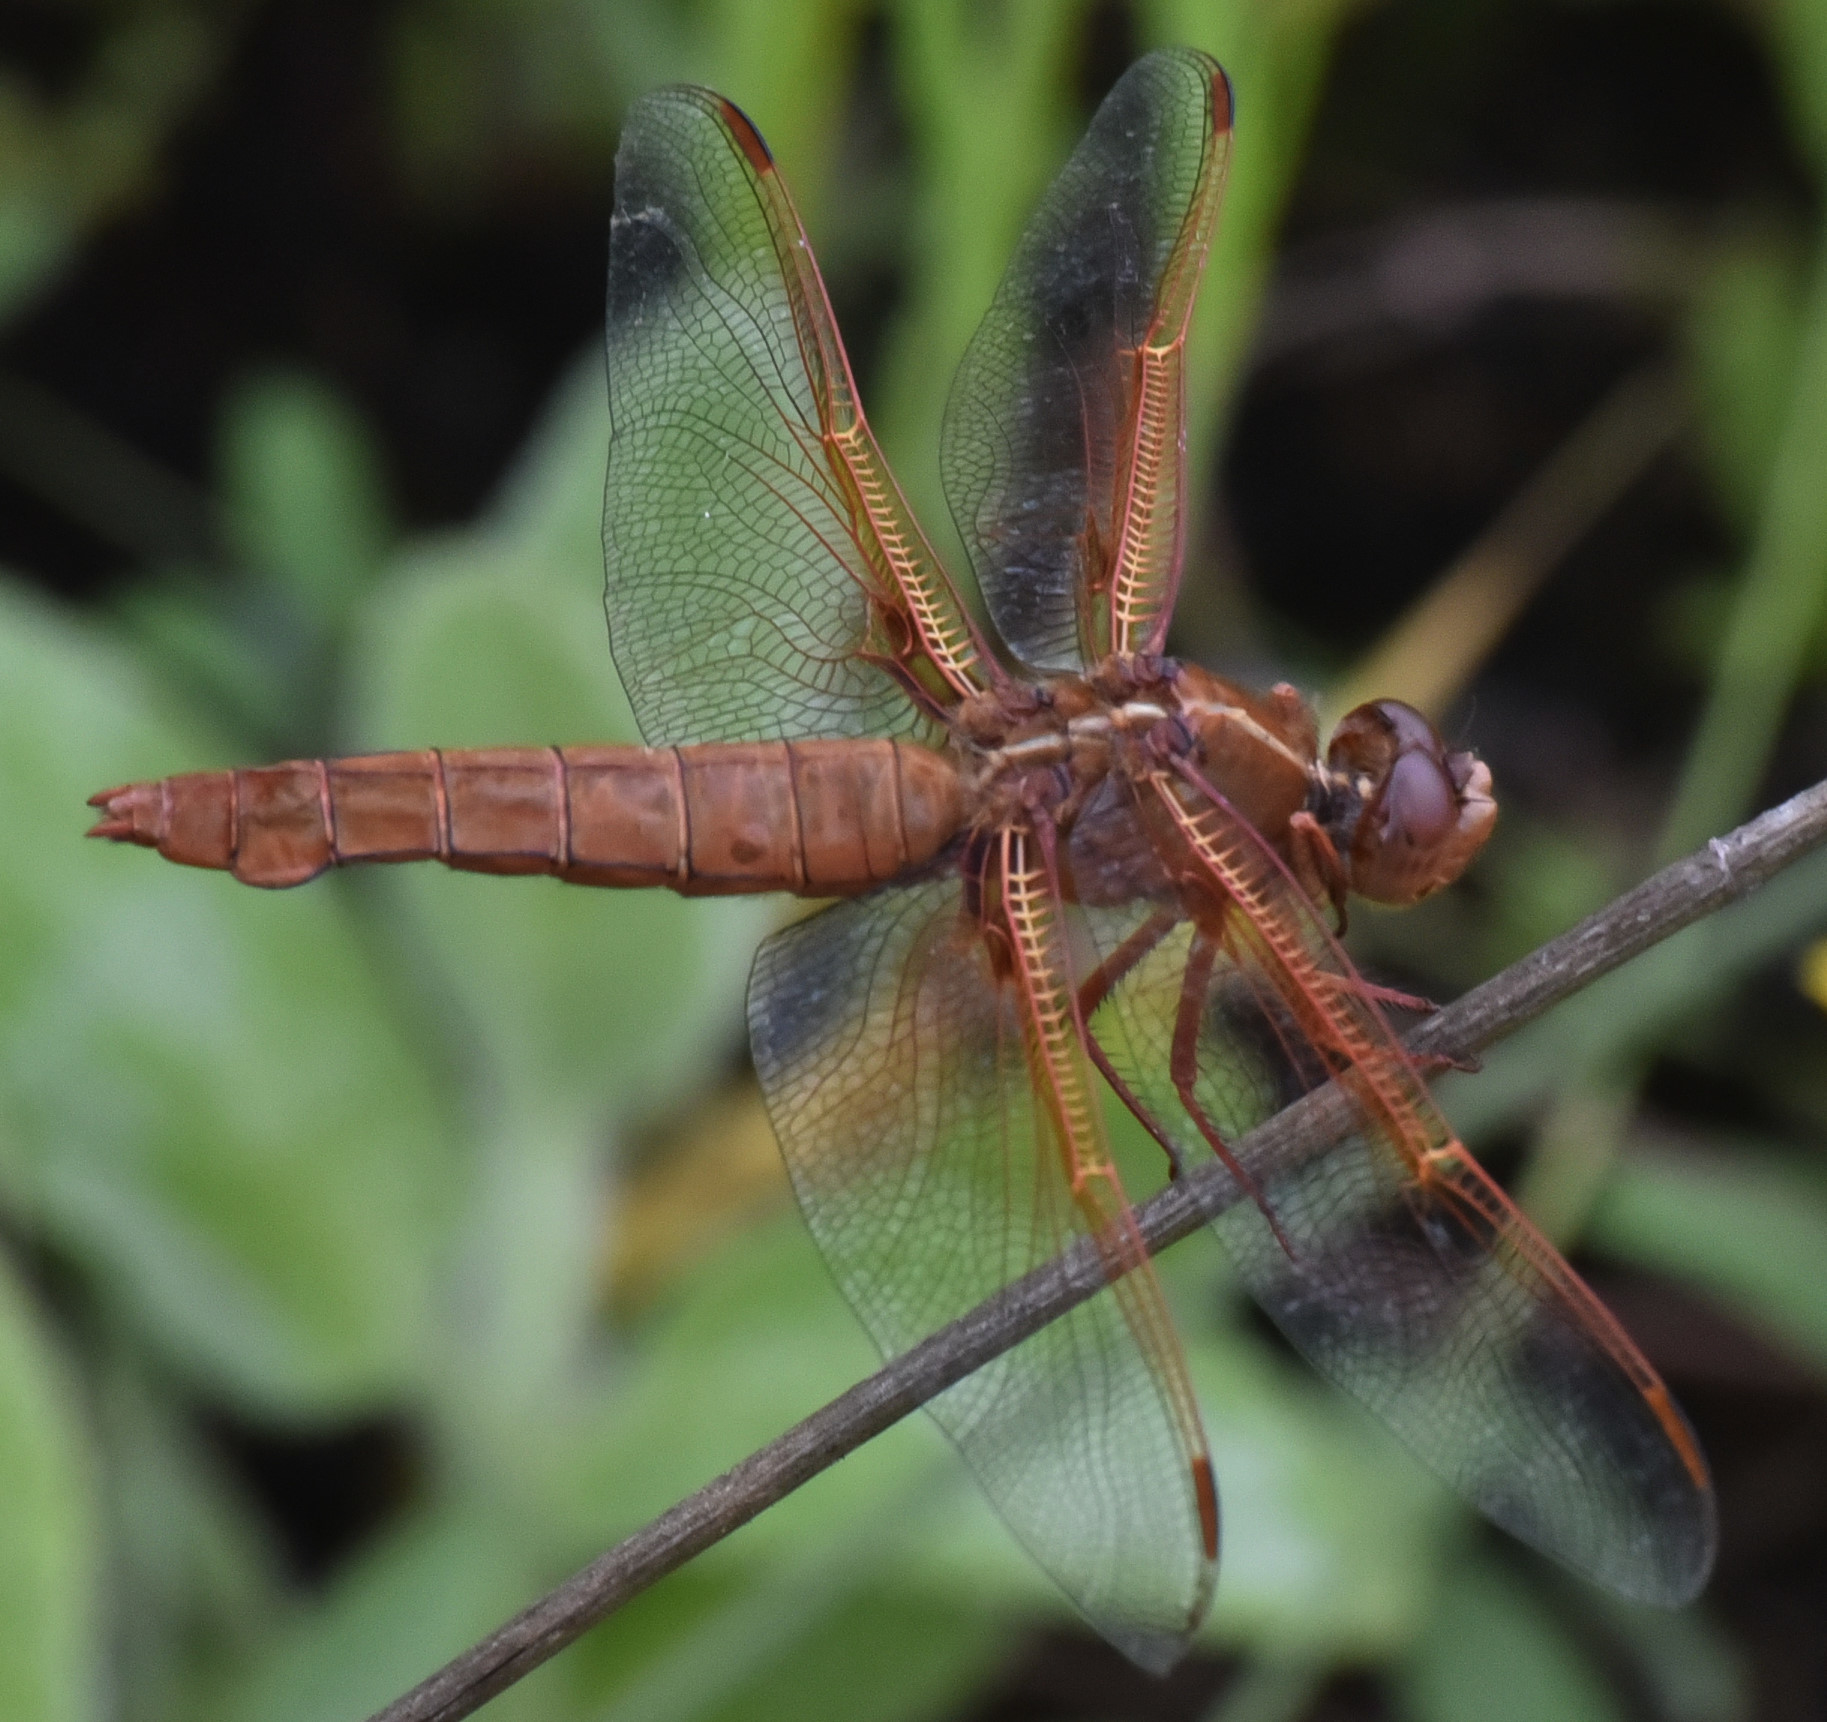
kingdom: Animalia
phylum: Arthropoda
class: Insecta
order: Odonata
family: Libellulidae
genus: Libellula
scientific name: Libellula saturata
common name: Flame skimmer
